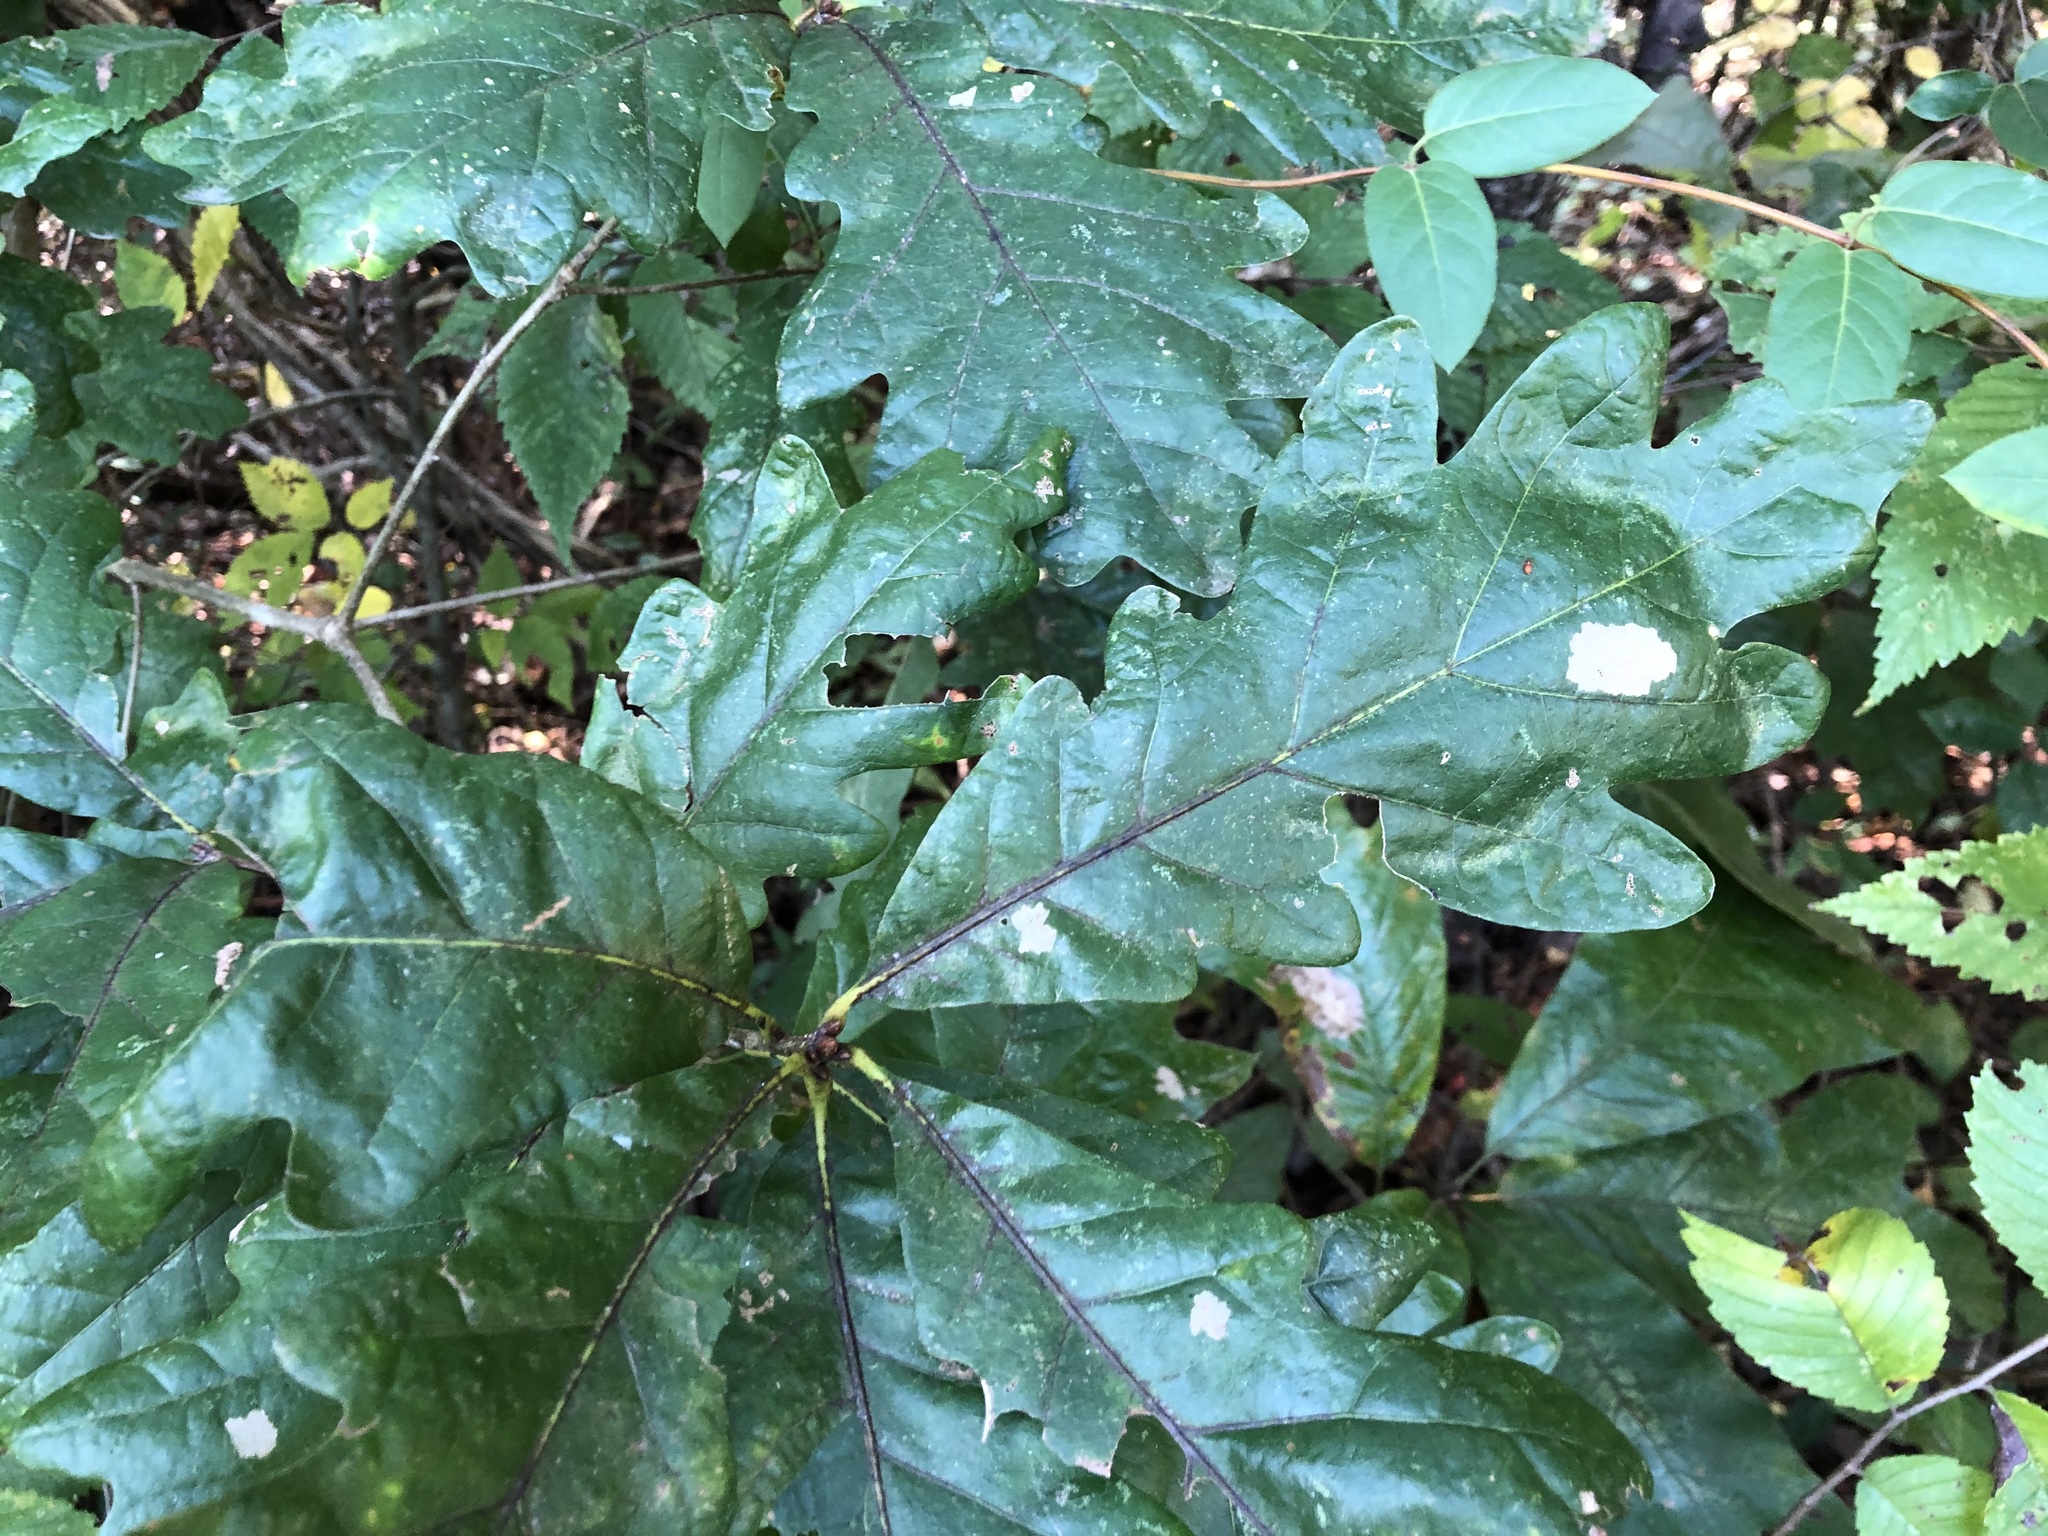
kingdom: Plantae
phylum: Tracheophyta
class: Magnoliopsida
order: Fagales
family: Fagaceae
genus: Quercus
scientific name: Quercus alba
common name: White oak
